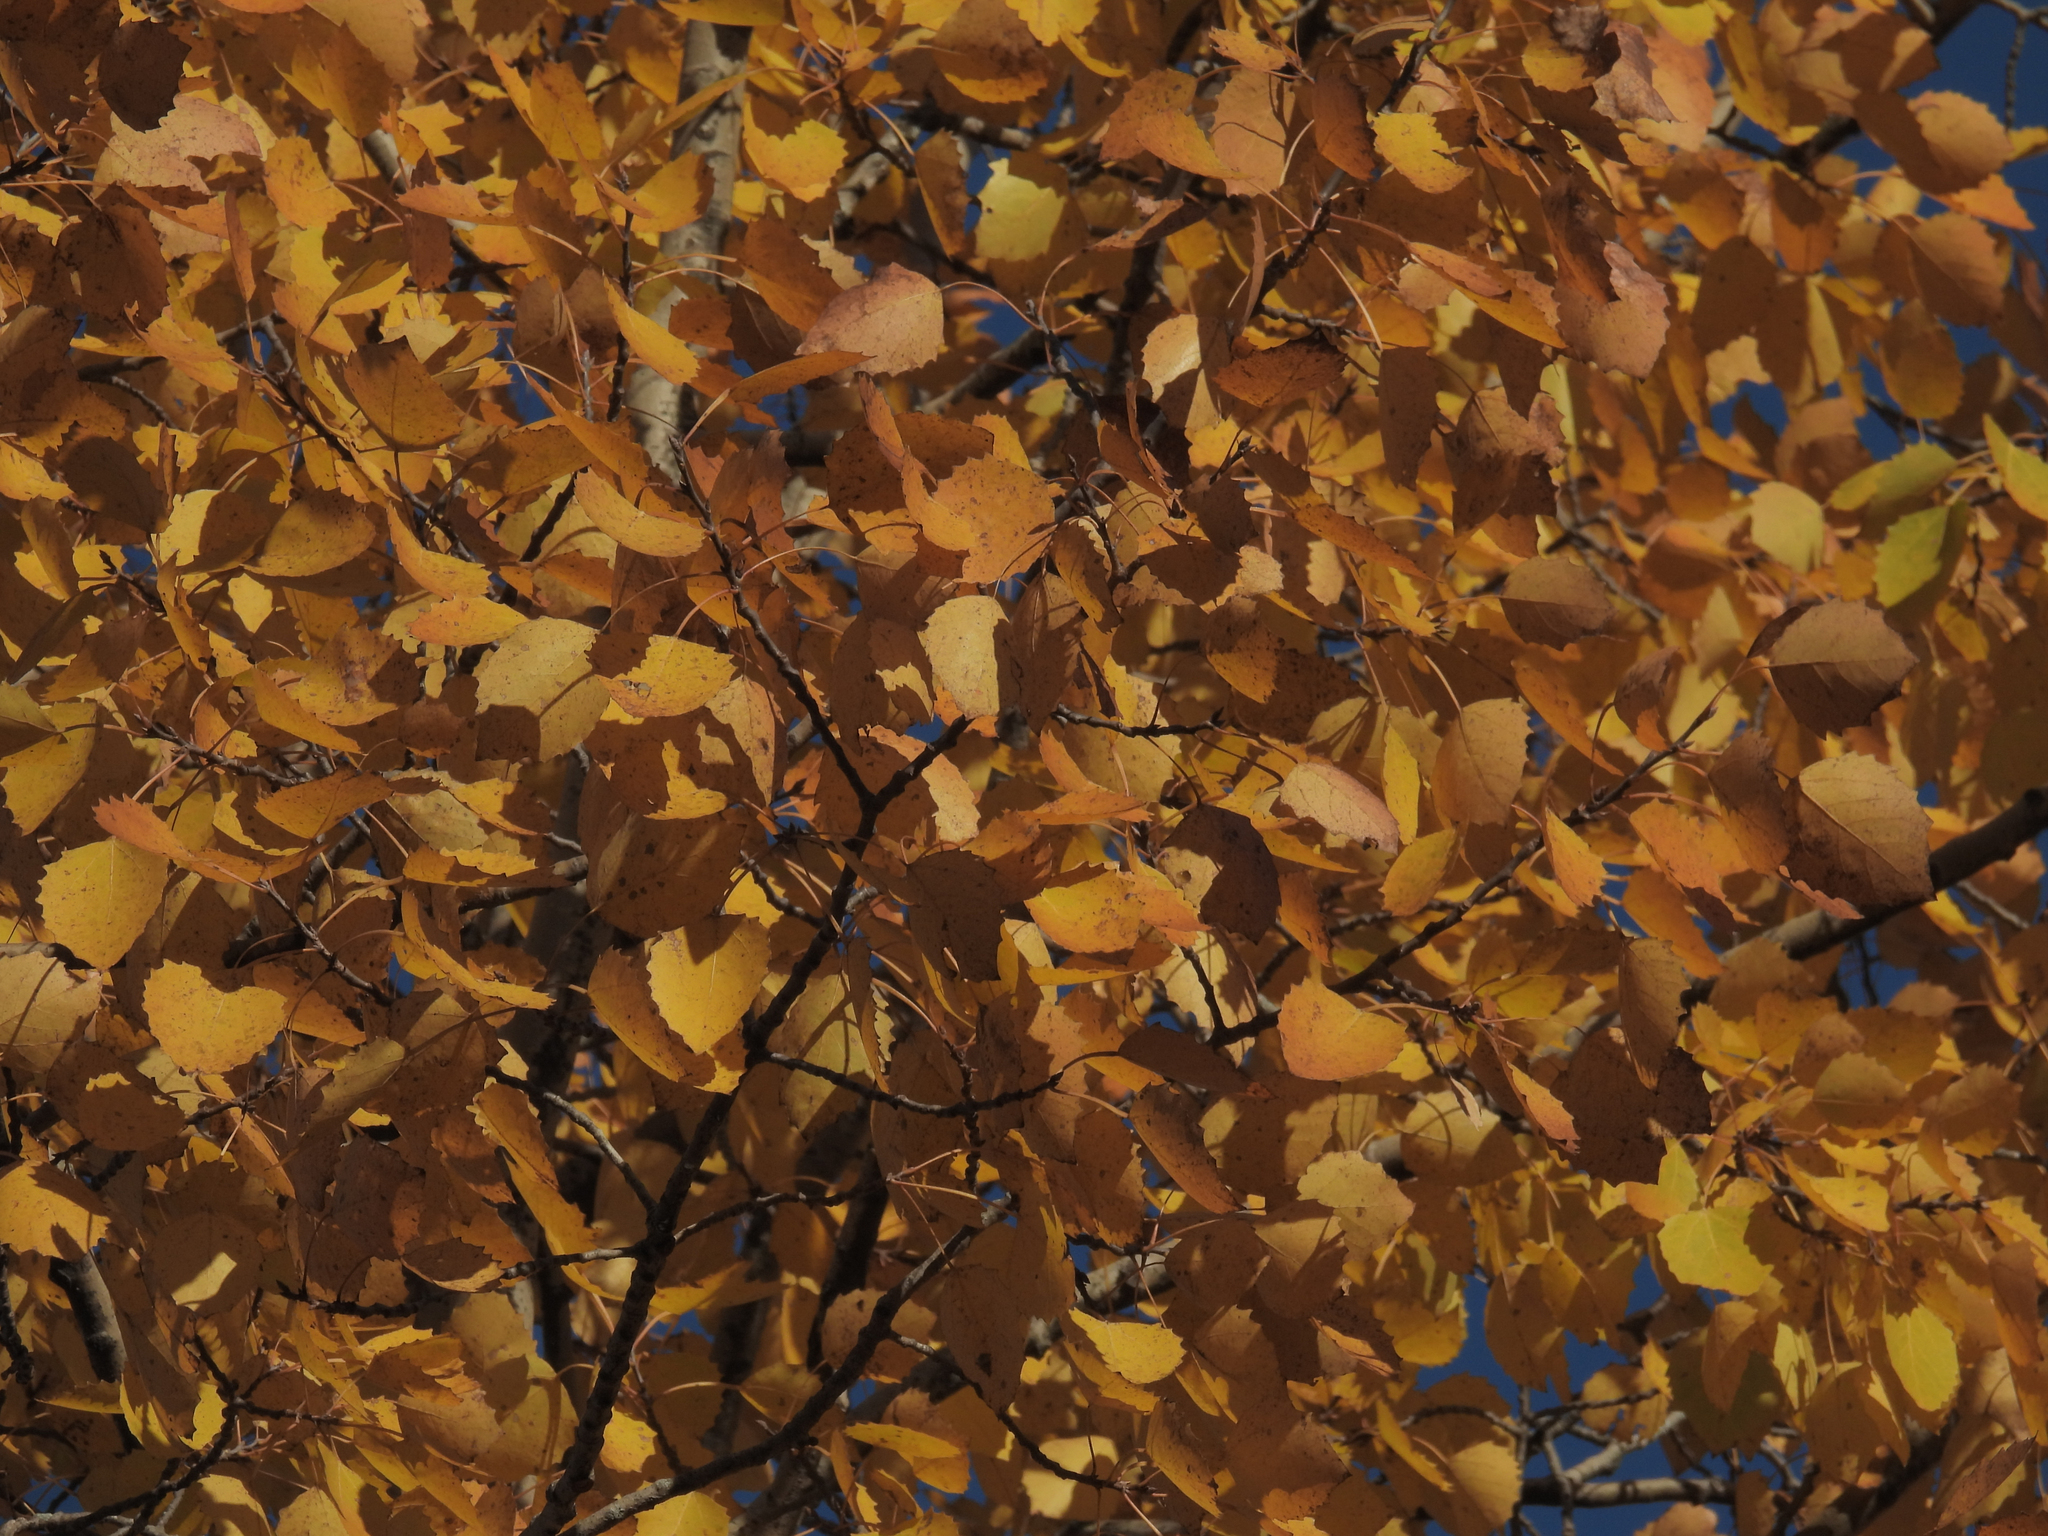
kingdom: Plantae
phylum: Tracheophyta
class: Magnoliopsida
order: Malpighiales
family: Salicaceae
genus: Populus
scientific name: Populus grandidentata
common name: Bigtooth aspen
